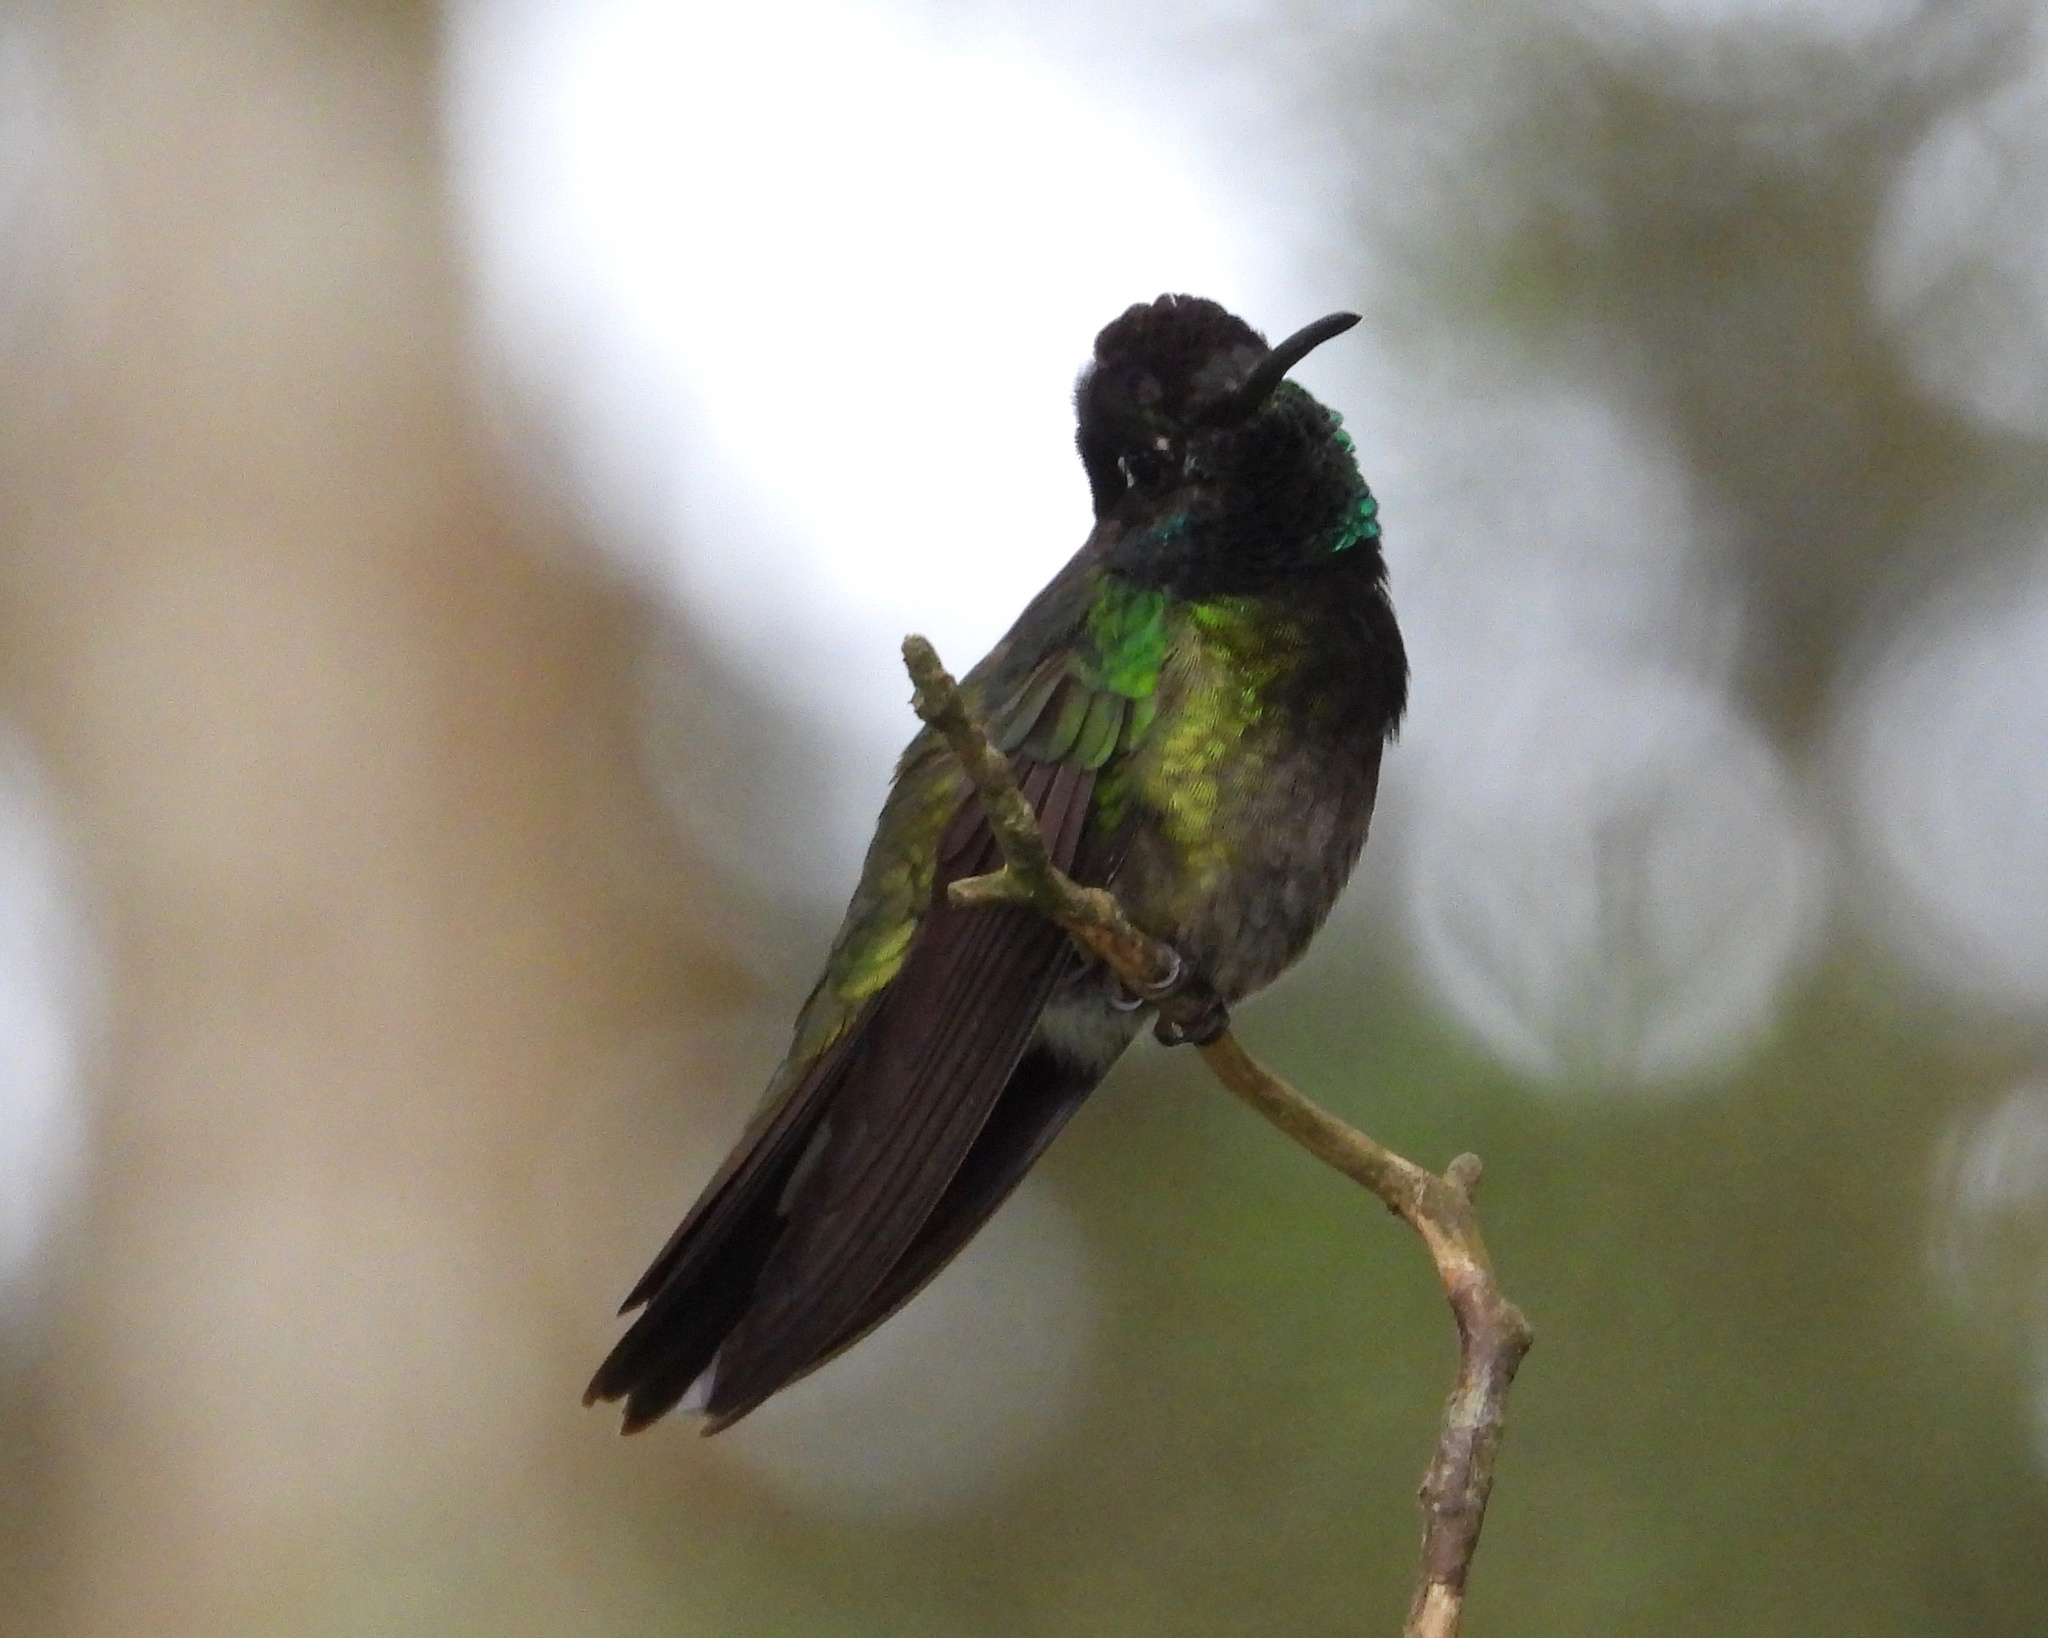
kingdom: Animalia
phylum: Chordata
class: Aves
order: Apodiformes
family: Trochilidae
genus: Eugenes
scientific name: Eugenes fulgens
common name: Magnificent hummingbird
